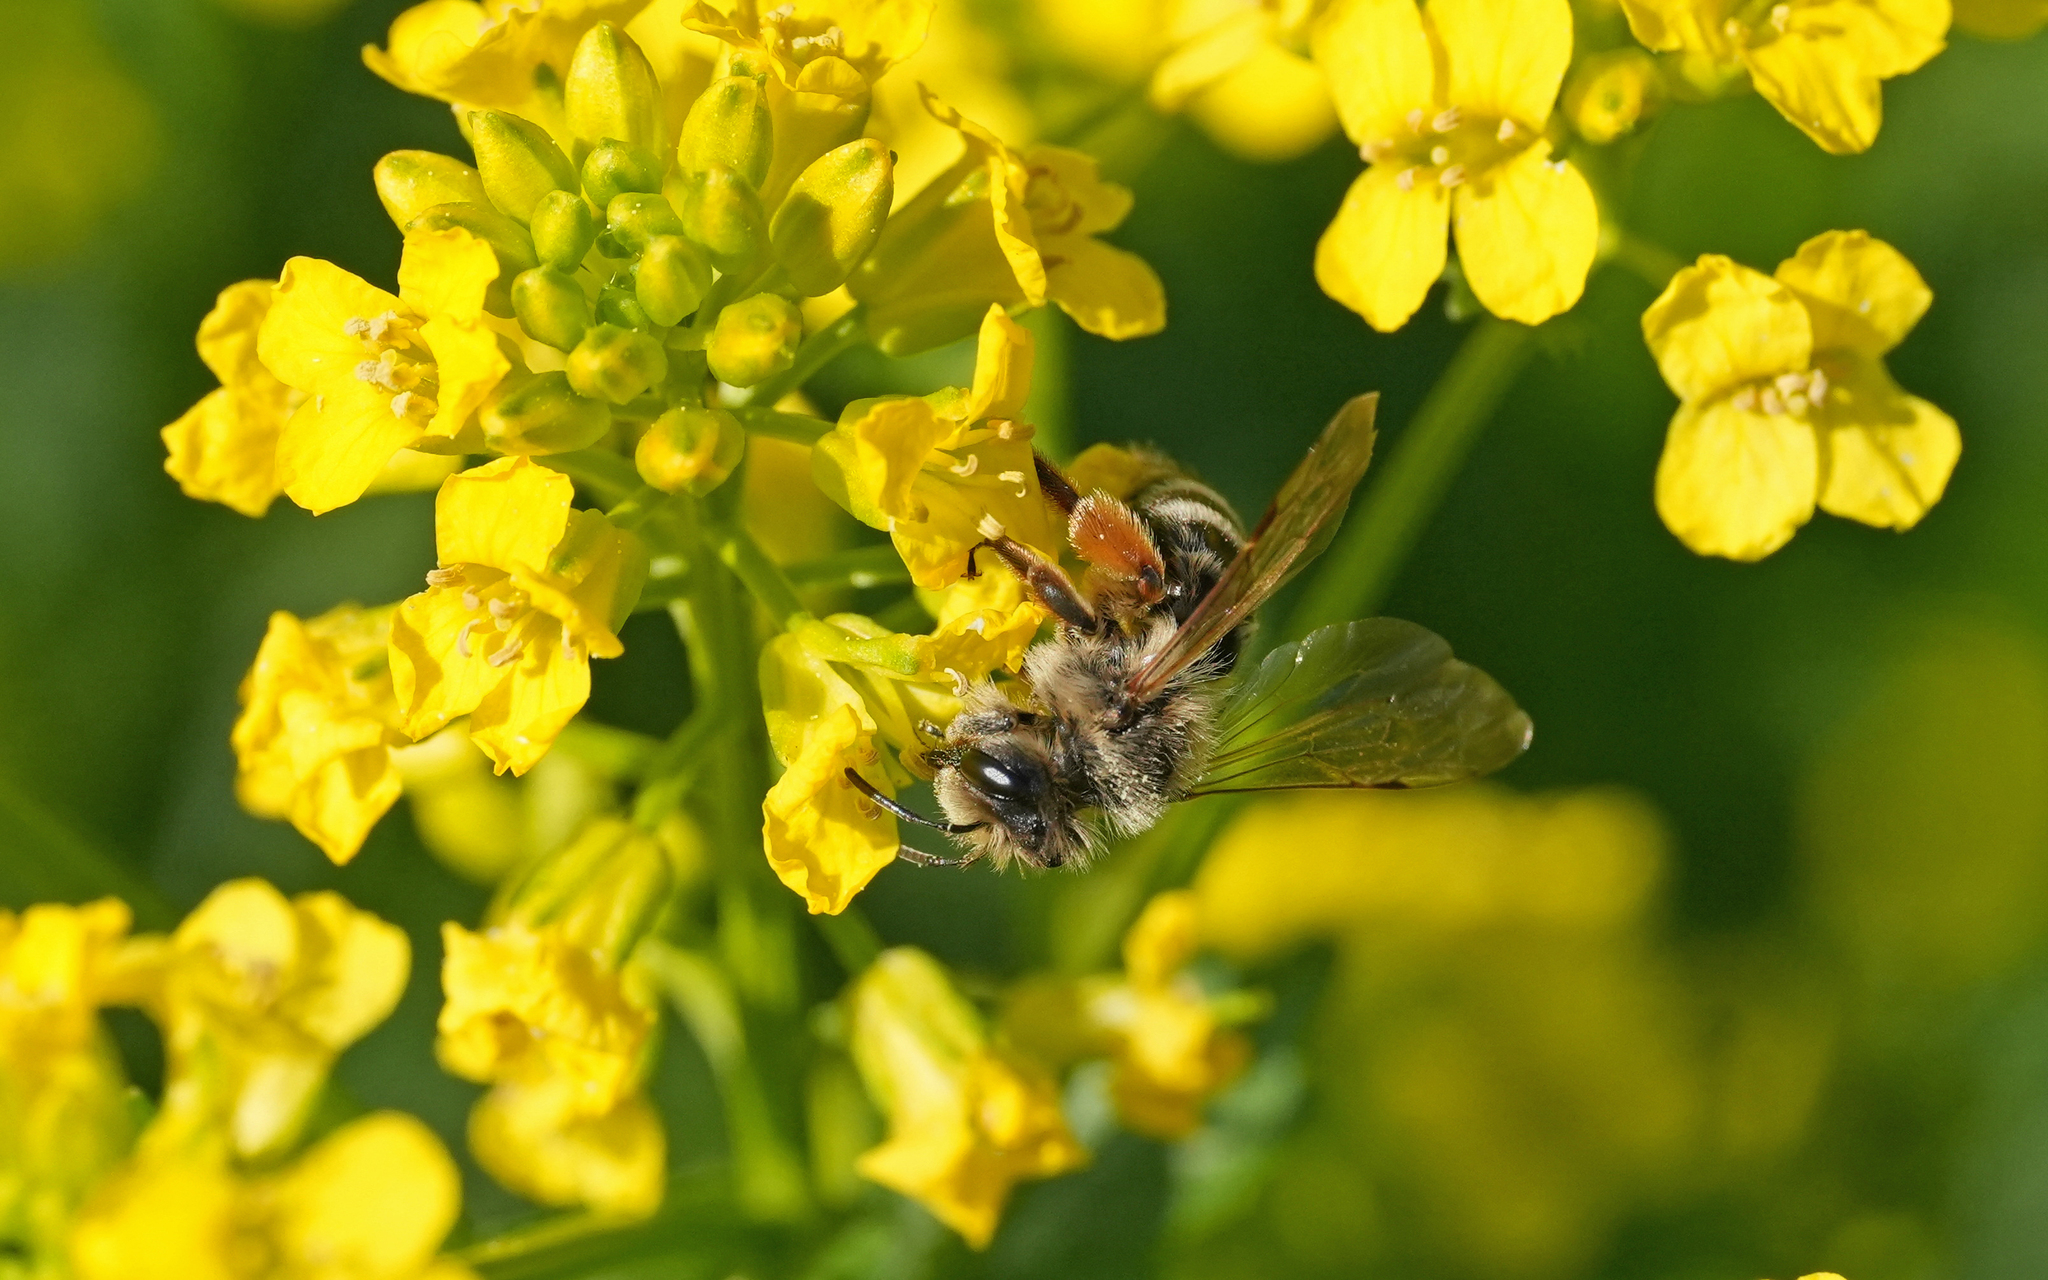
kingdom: Animalia
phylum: Arthropoda
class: Insecta
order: Hymenoptera
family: Andrenidae
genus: Andrena
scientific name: Andrena flavipes
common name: Yellow-legged mining bee
